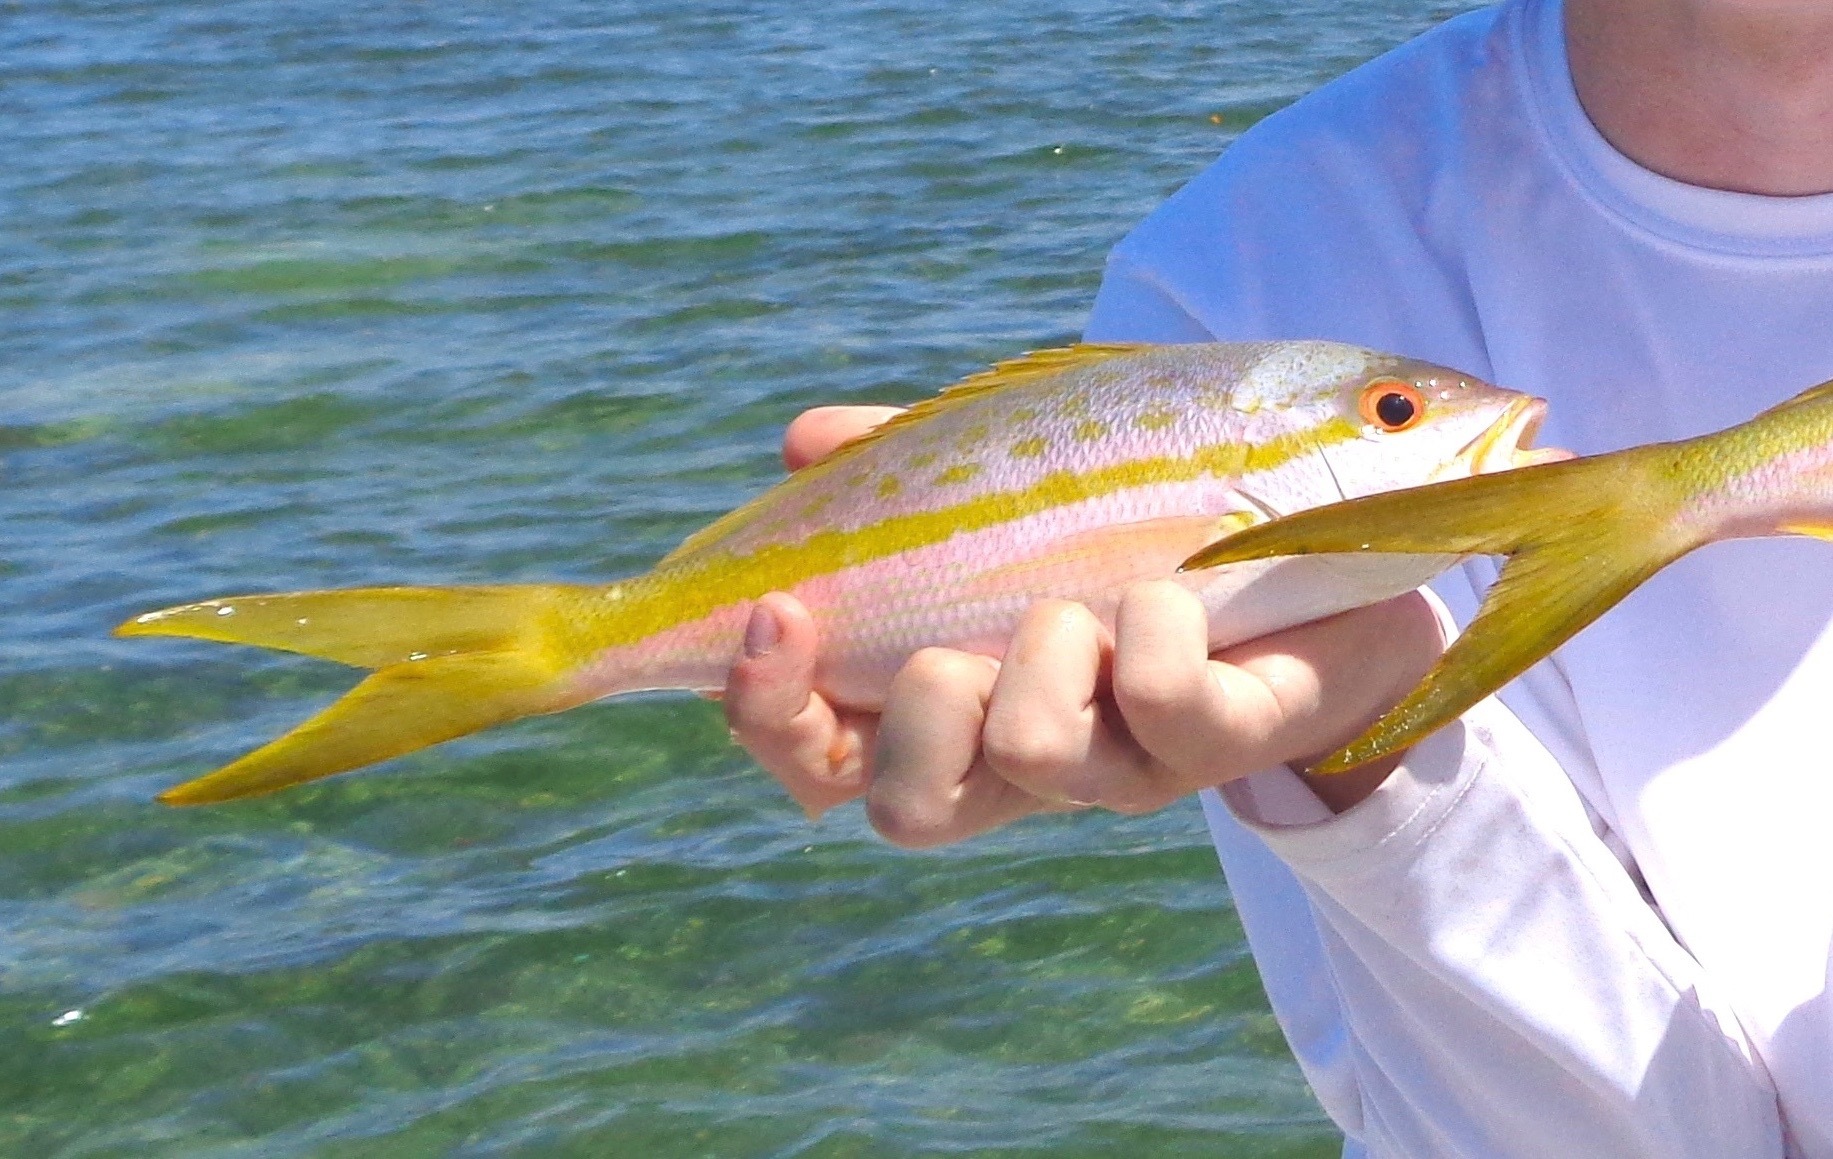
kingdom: Animalia
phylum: Chordata
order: Perciformes
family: Lutjanidae
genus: Ocyurus
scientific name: Ocyurus chrysurus
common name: Yellowtail snapper
